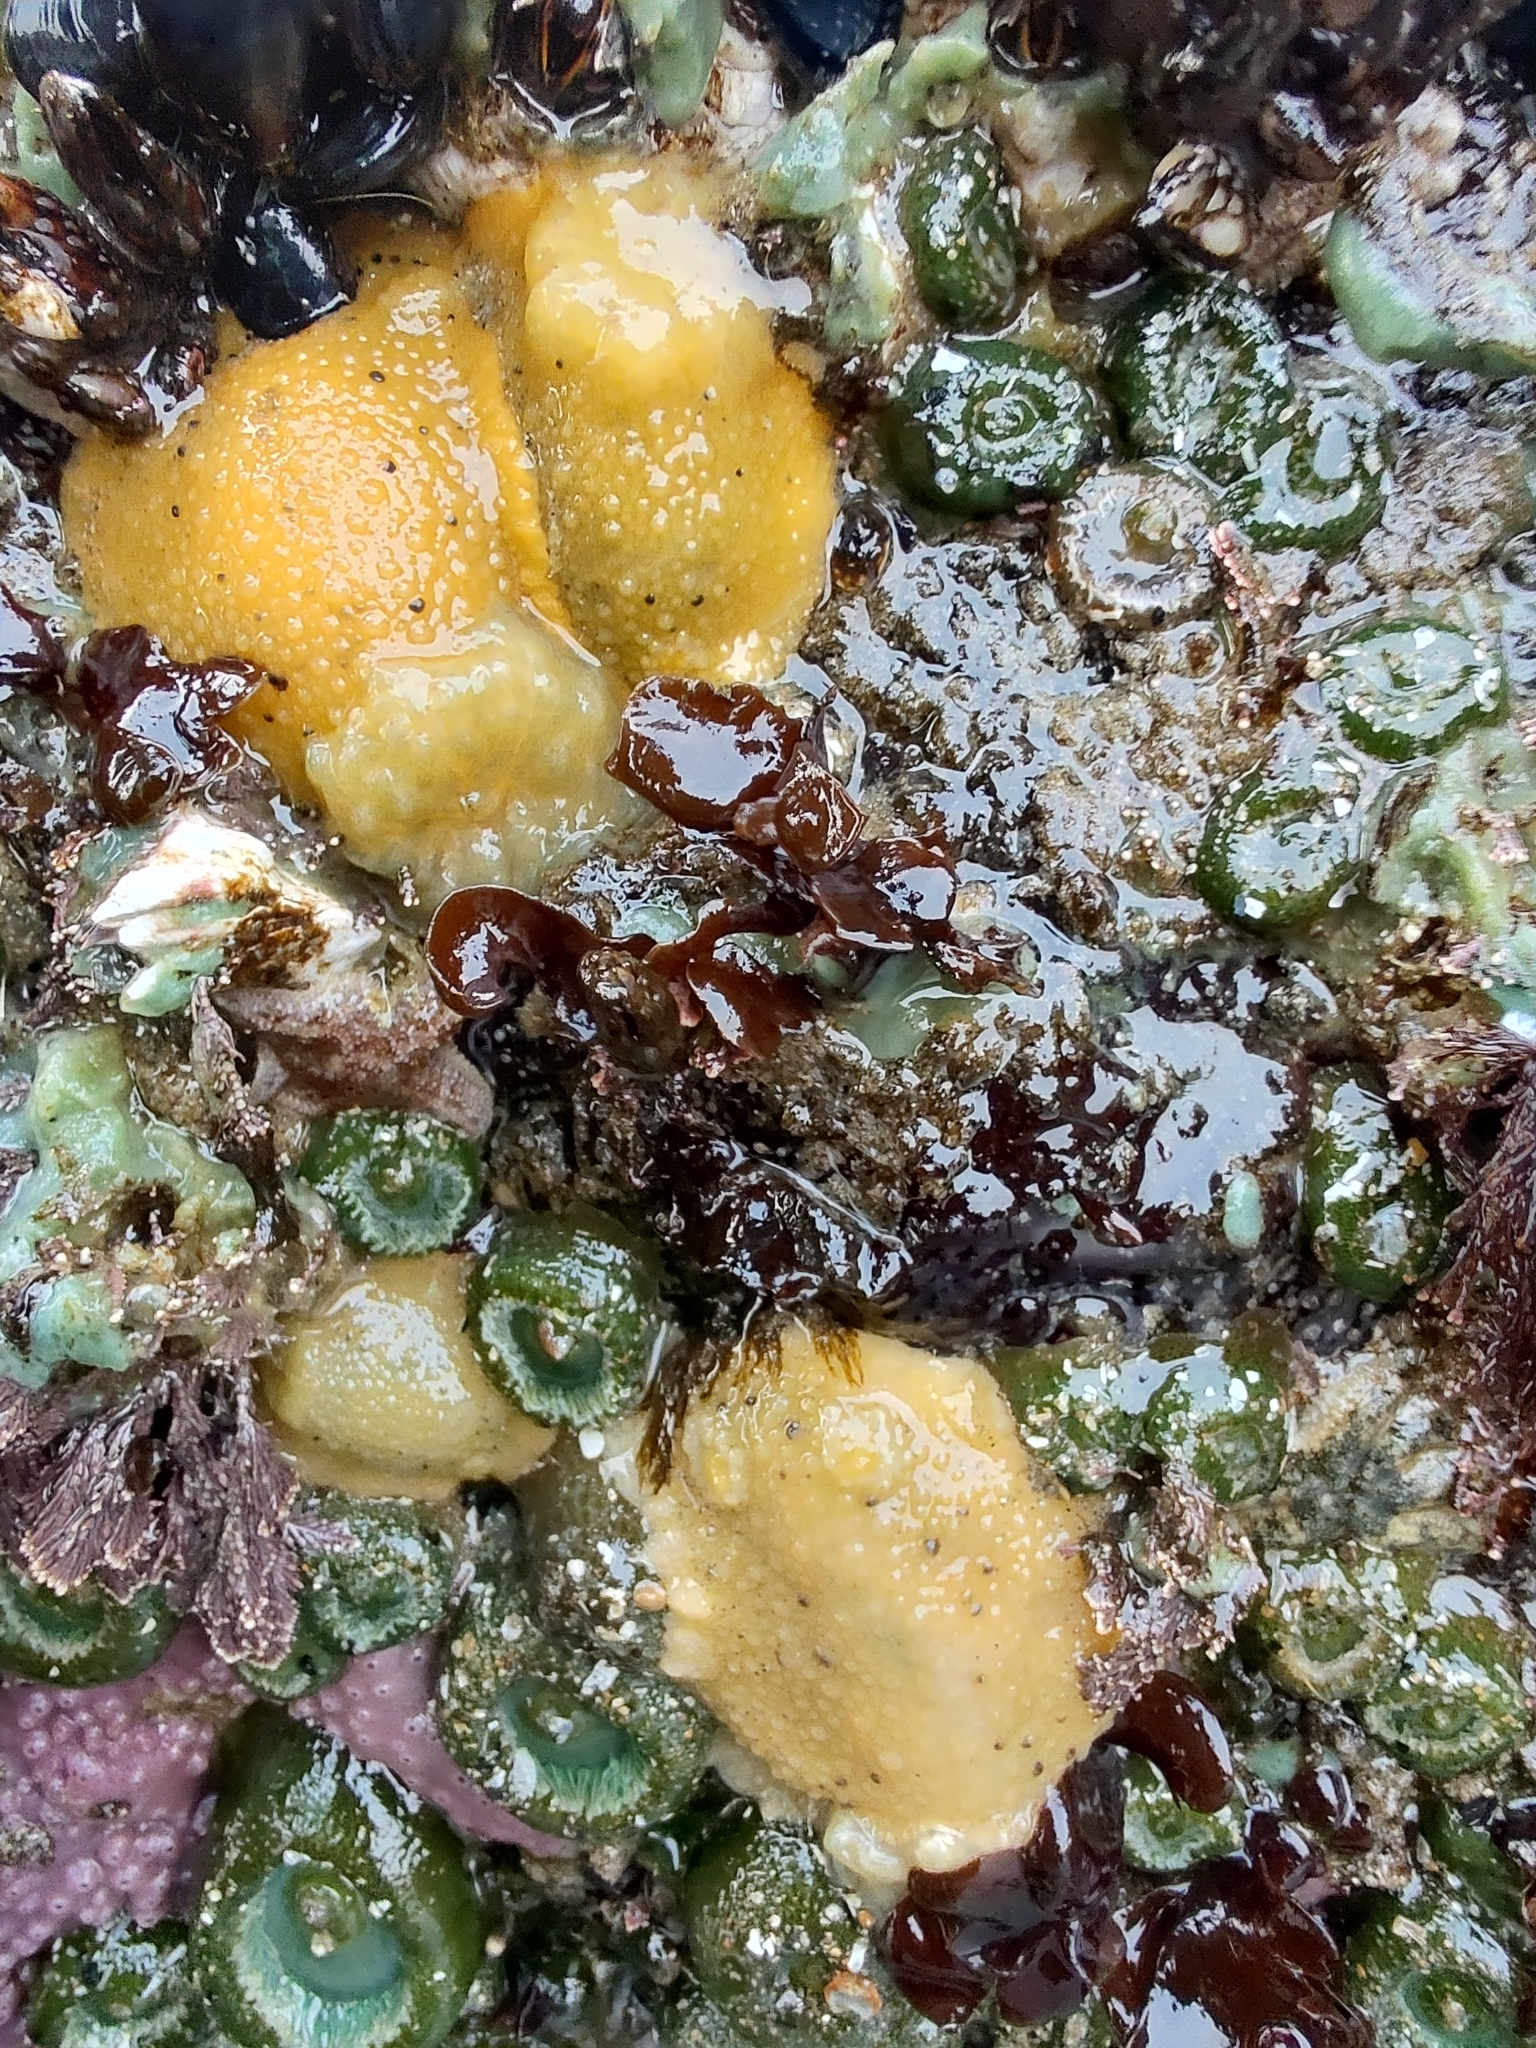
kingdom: Animalia
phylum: Mollusca
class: Gastropoda
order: Nudibranchia
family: Dorididae
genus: Doris
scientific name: Doris montereyensis
